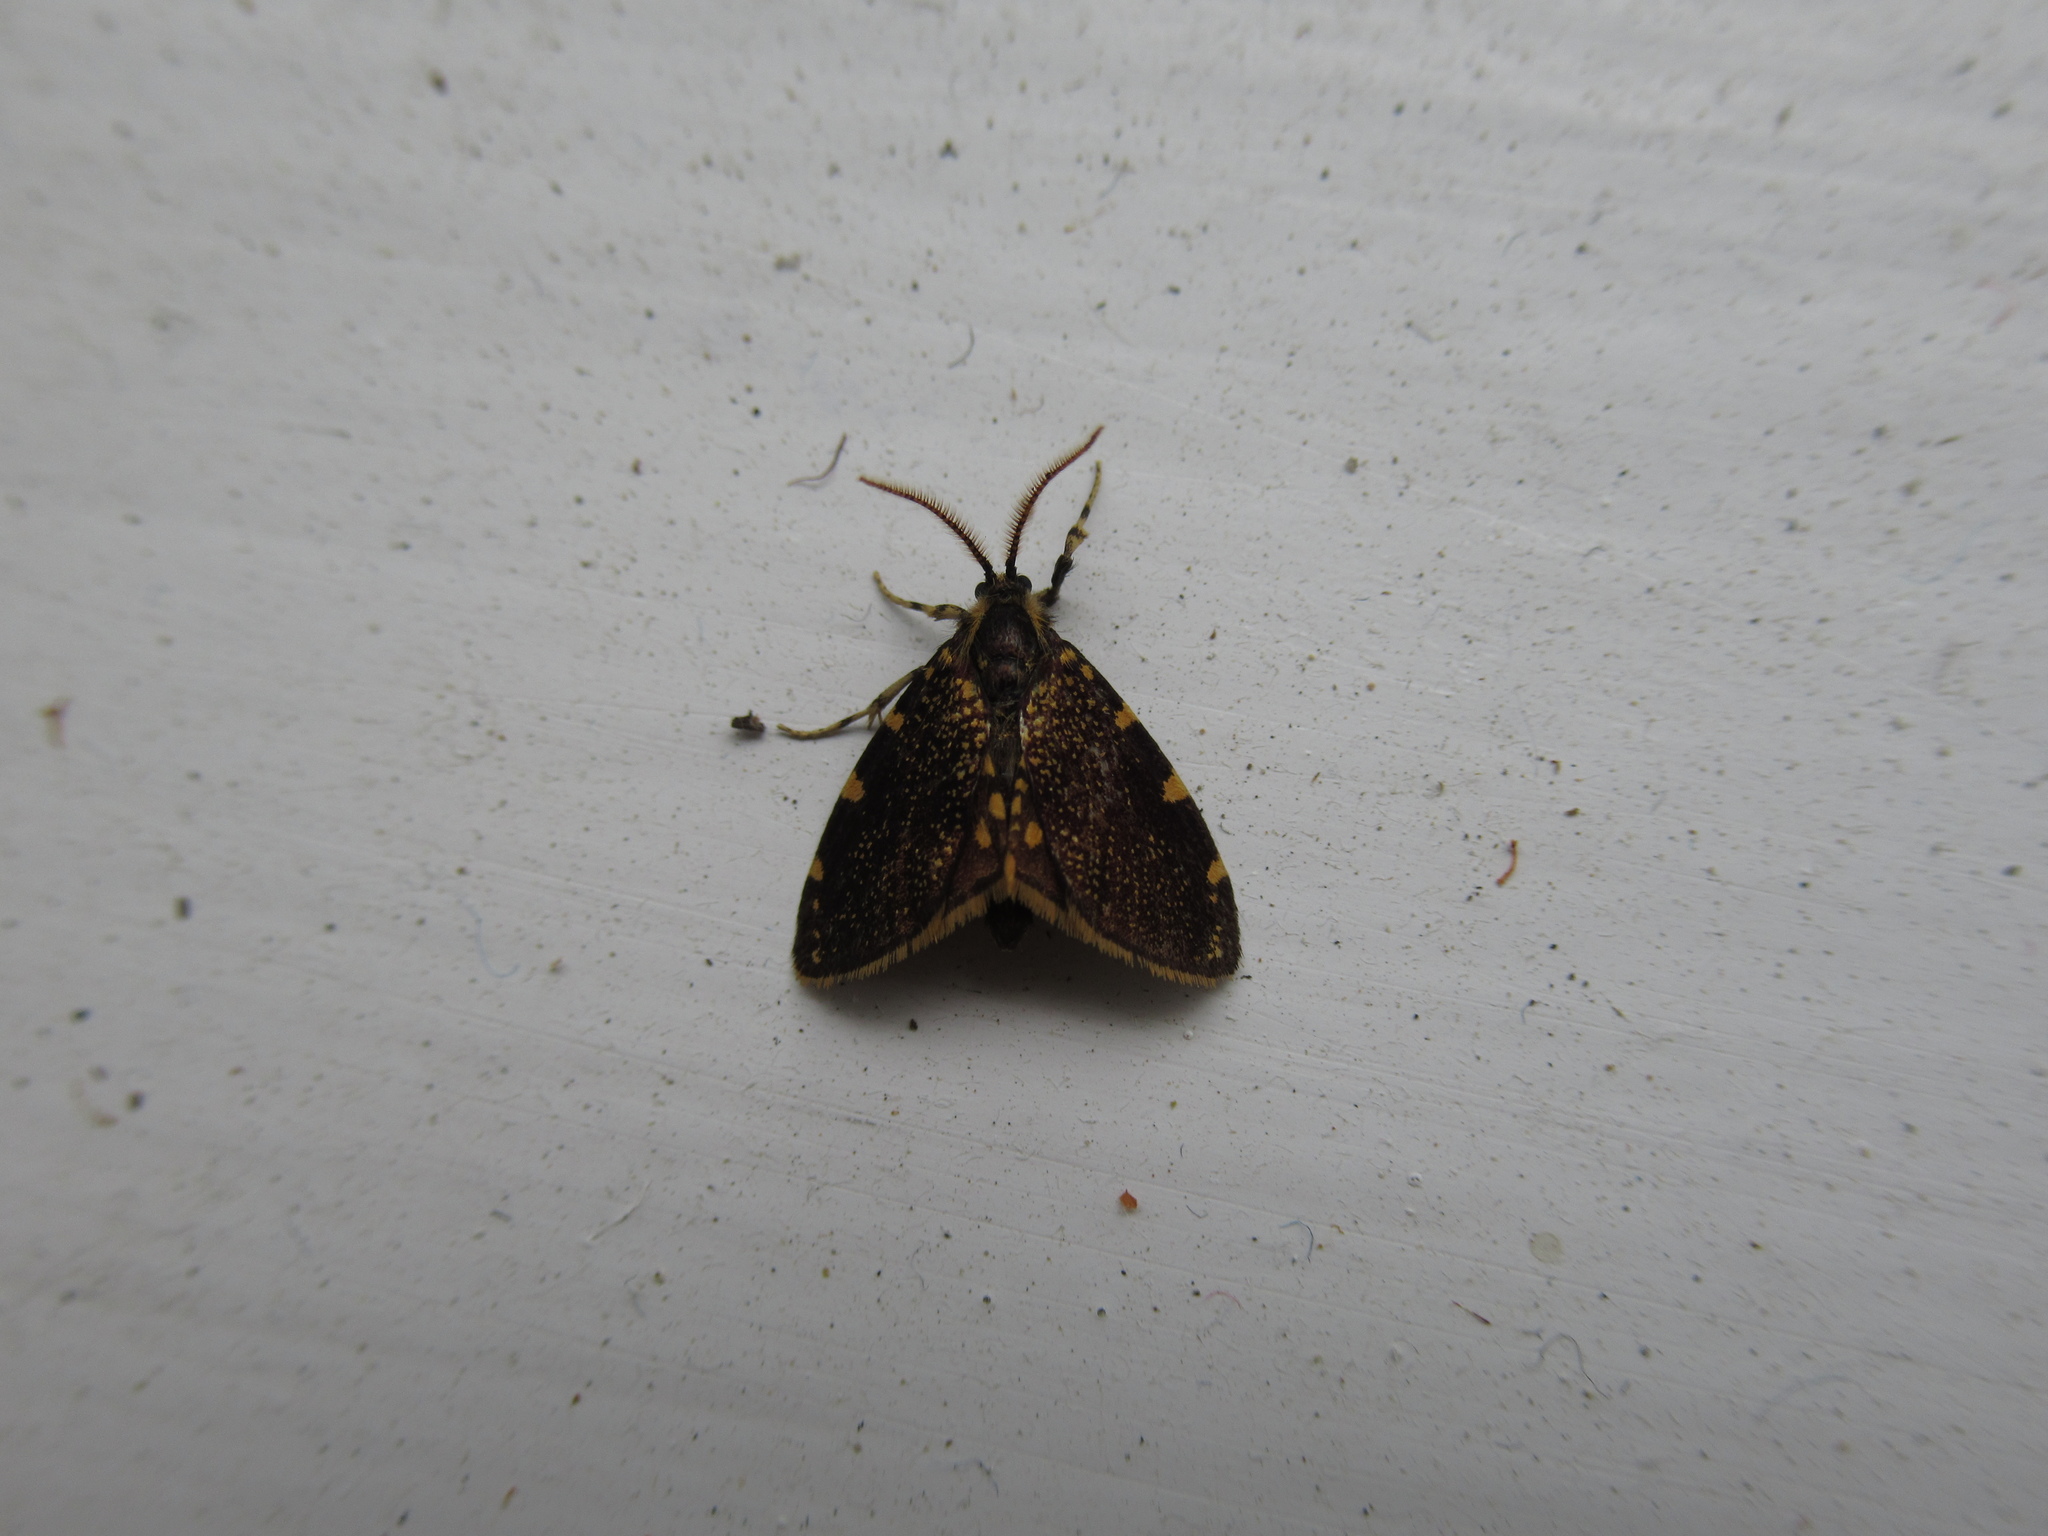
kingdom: Animalia
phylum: Arthropoda
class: Insecta
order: Lepidoptera
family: Psychidae
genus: Cebysa
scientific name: Cebysa leucotelus
